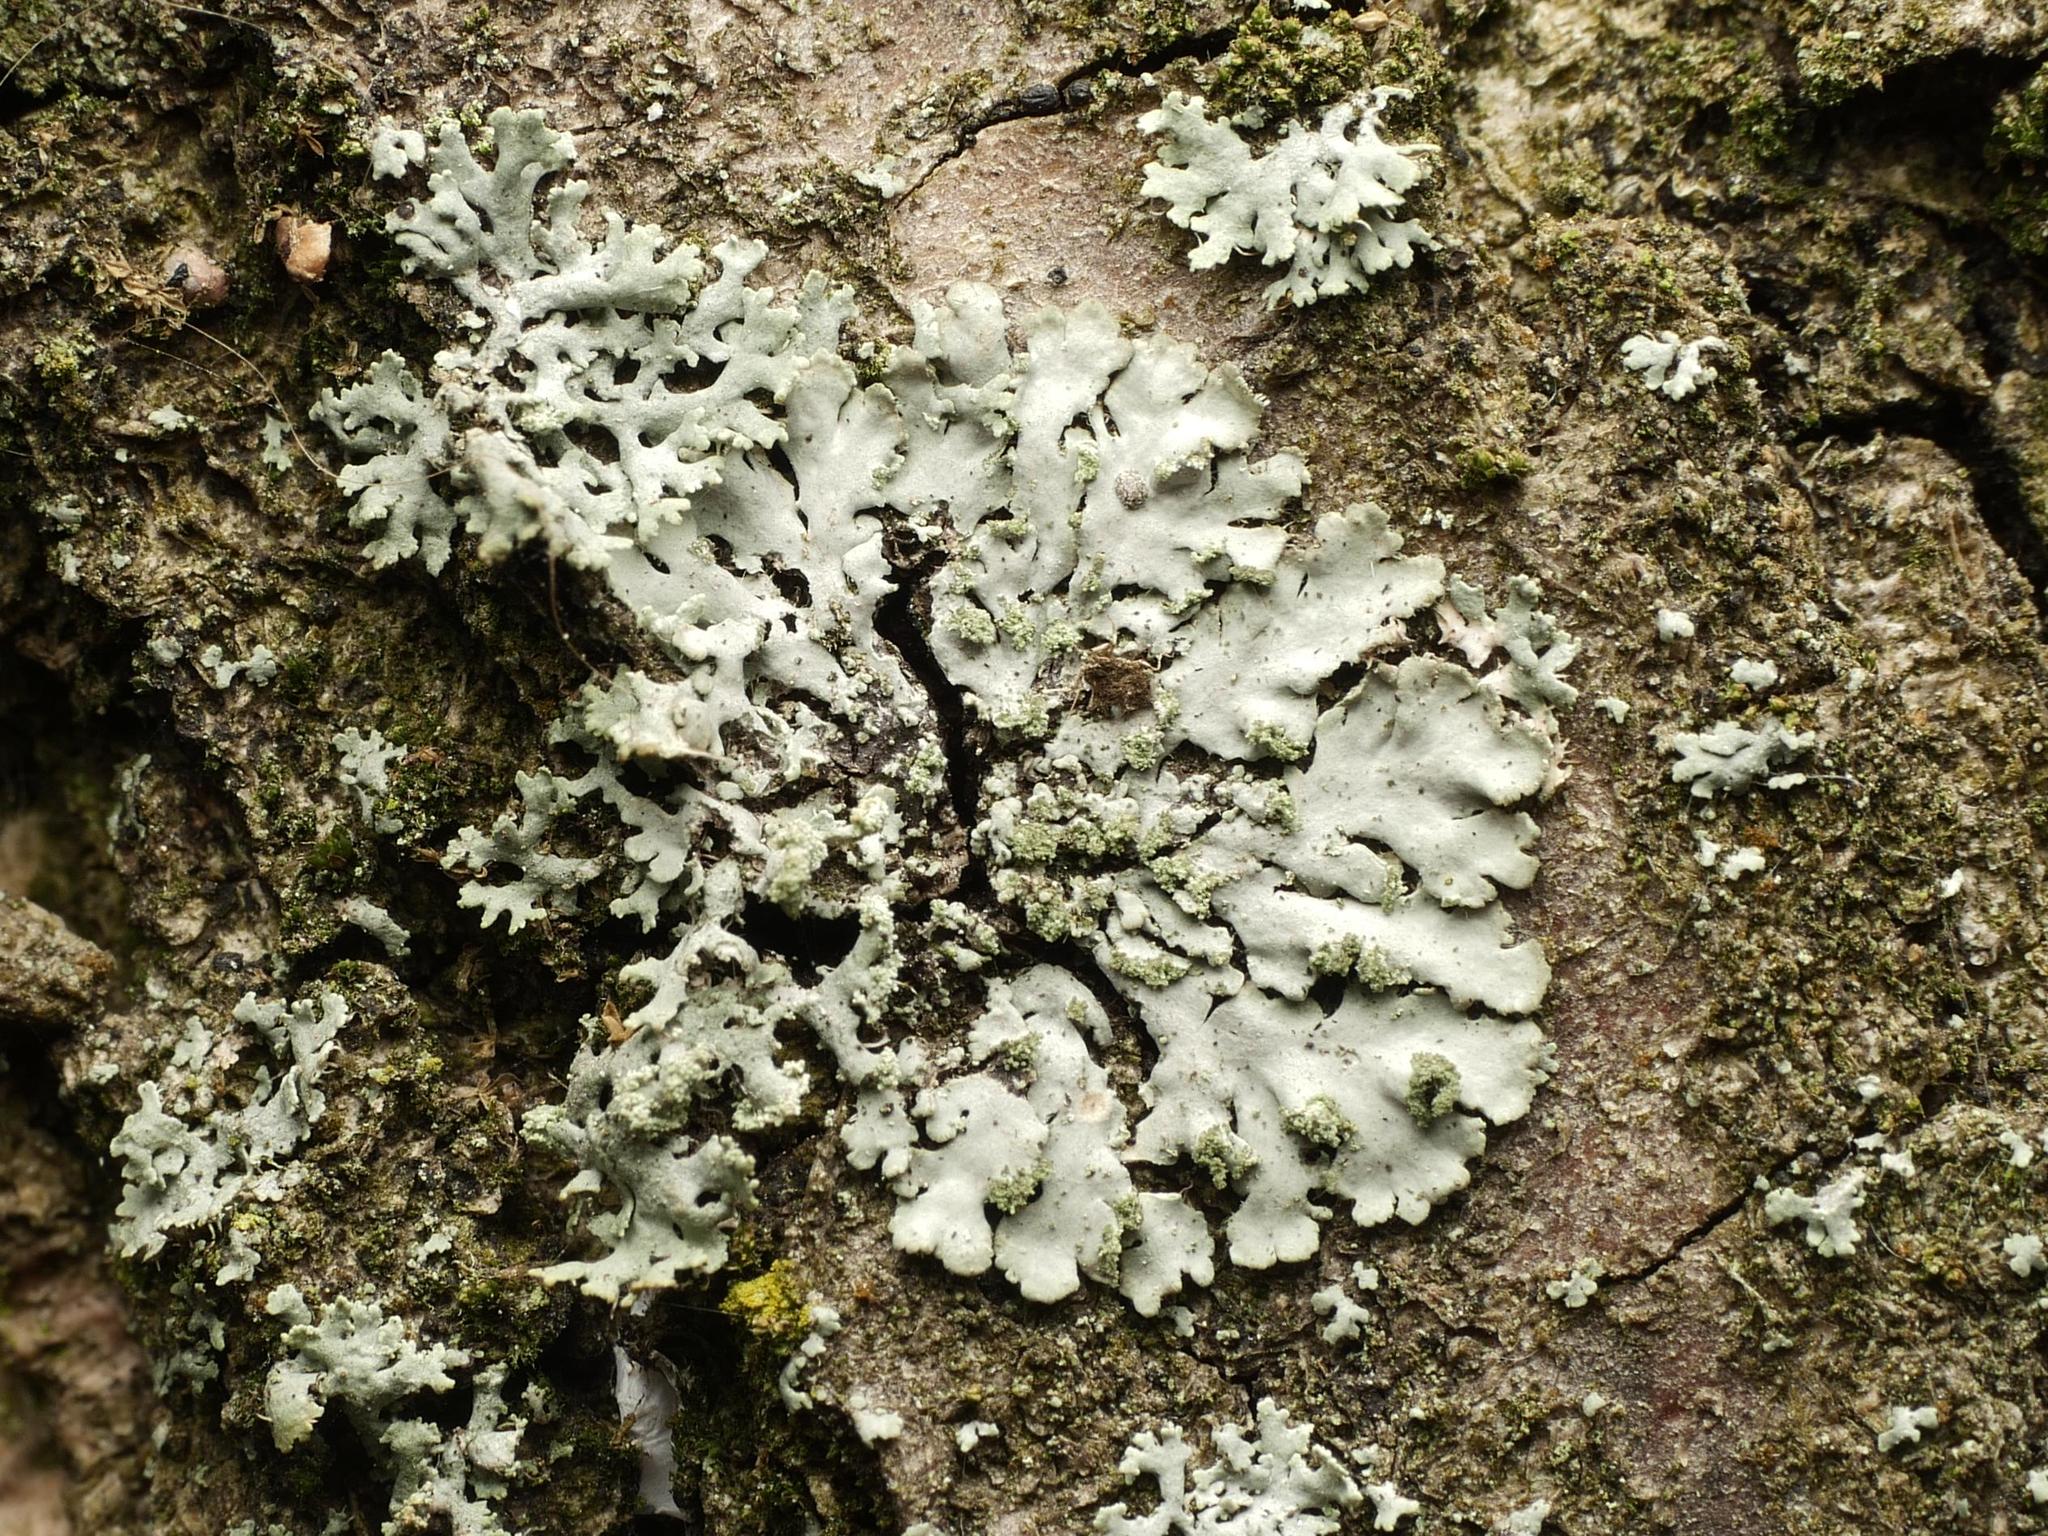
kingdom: Fungi
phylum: Ascomycota
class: Lecanoromycetes
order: Caliciales
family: Physciaceae
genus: Phaeophyscia
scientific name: Phaeophyscia orbicularis
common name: Mealy shadow lichen
